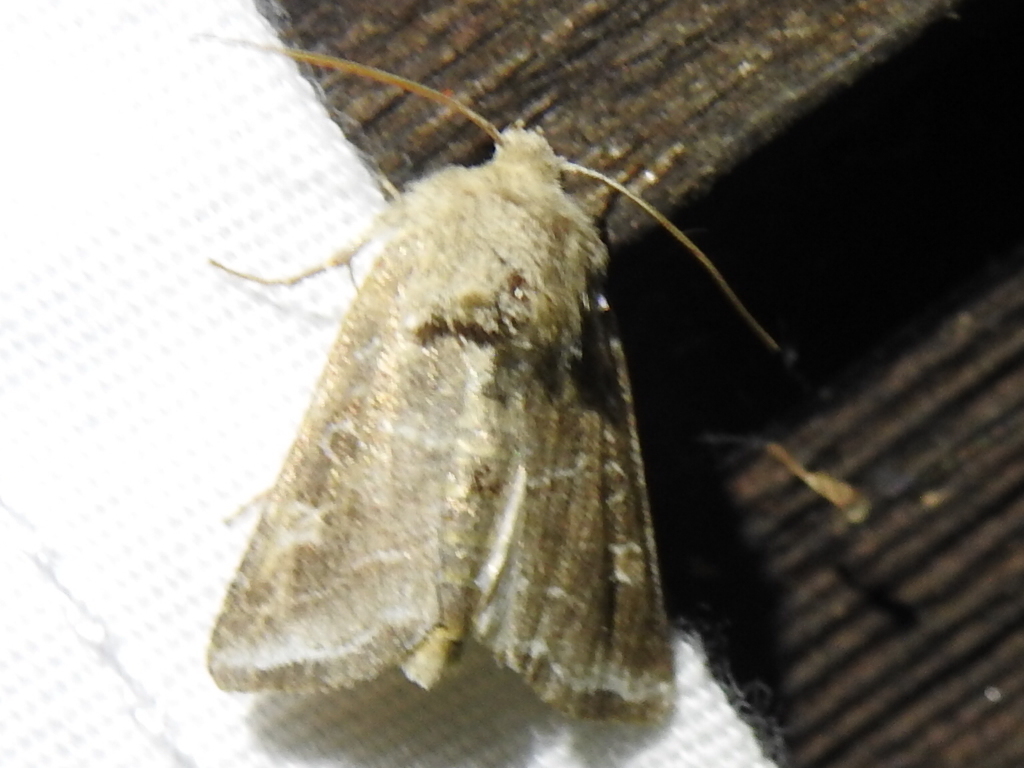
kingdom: Animalia
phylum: Arthropoda
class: Insecta
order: Lepidoptera
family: Noctuidae
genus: Lacinipolia
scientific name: Lacinipolia erecta
